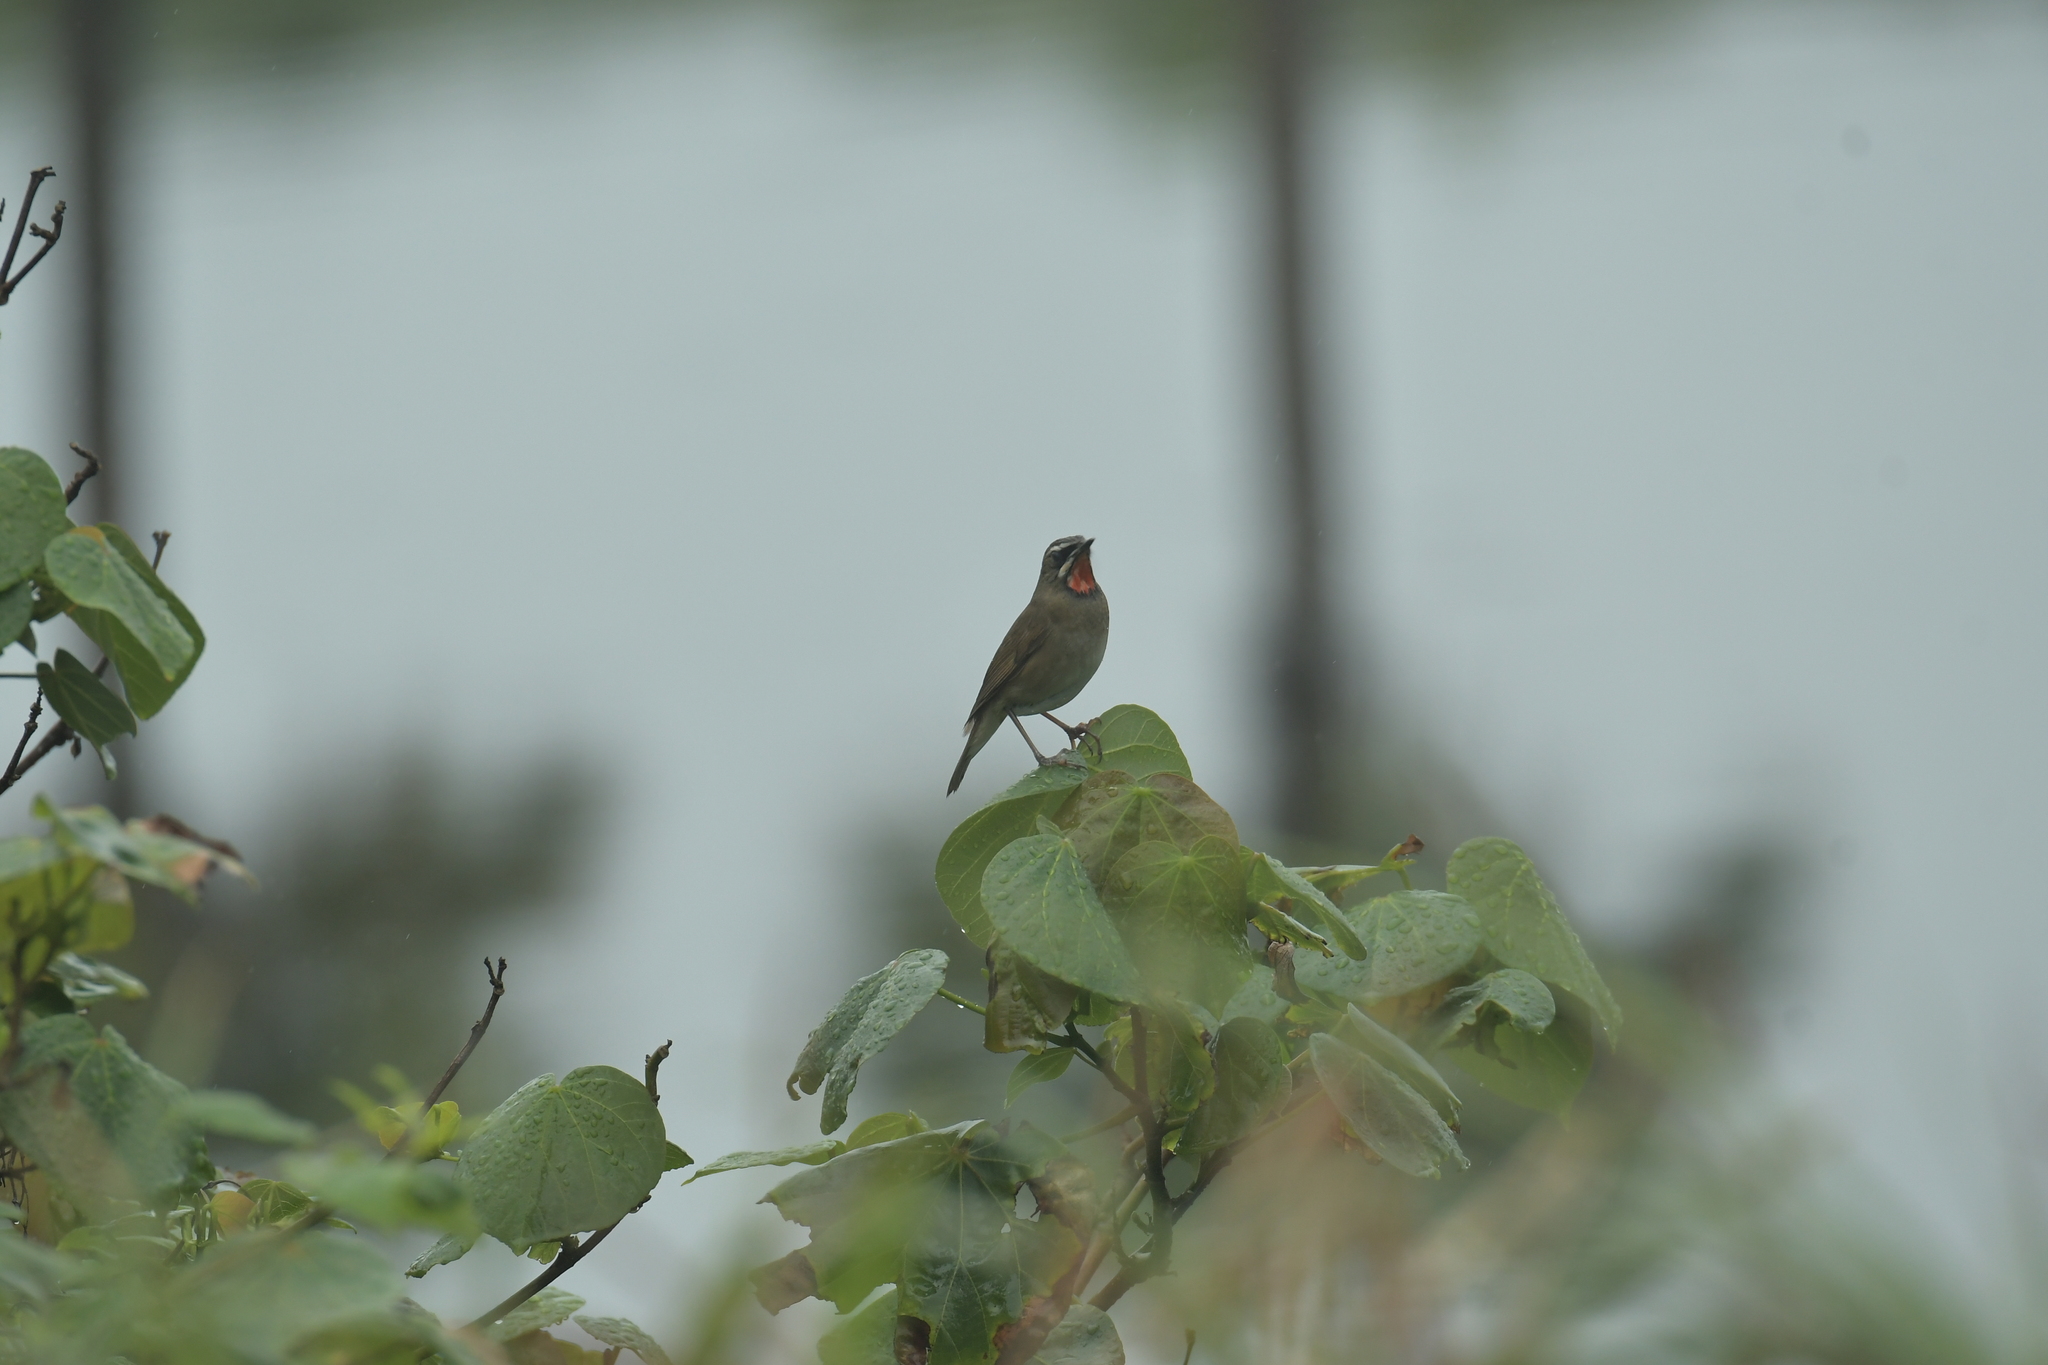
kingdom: Animalia
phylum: Chordata
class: Aves
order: Passeriformes
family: Muscicapidae
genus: Luscinia
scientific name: Luscinia calliope
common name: Siberian rubythroat
